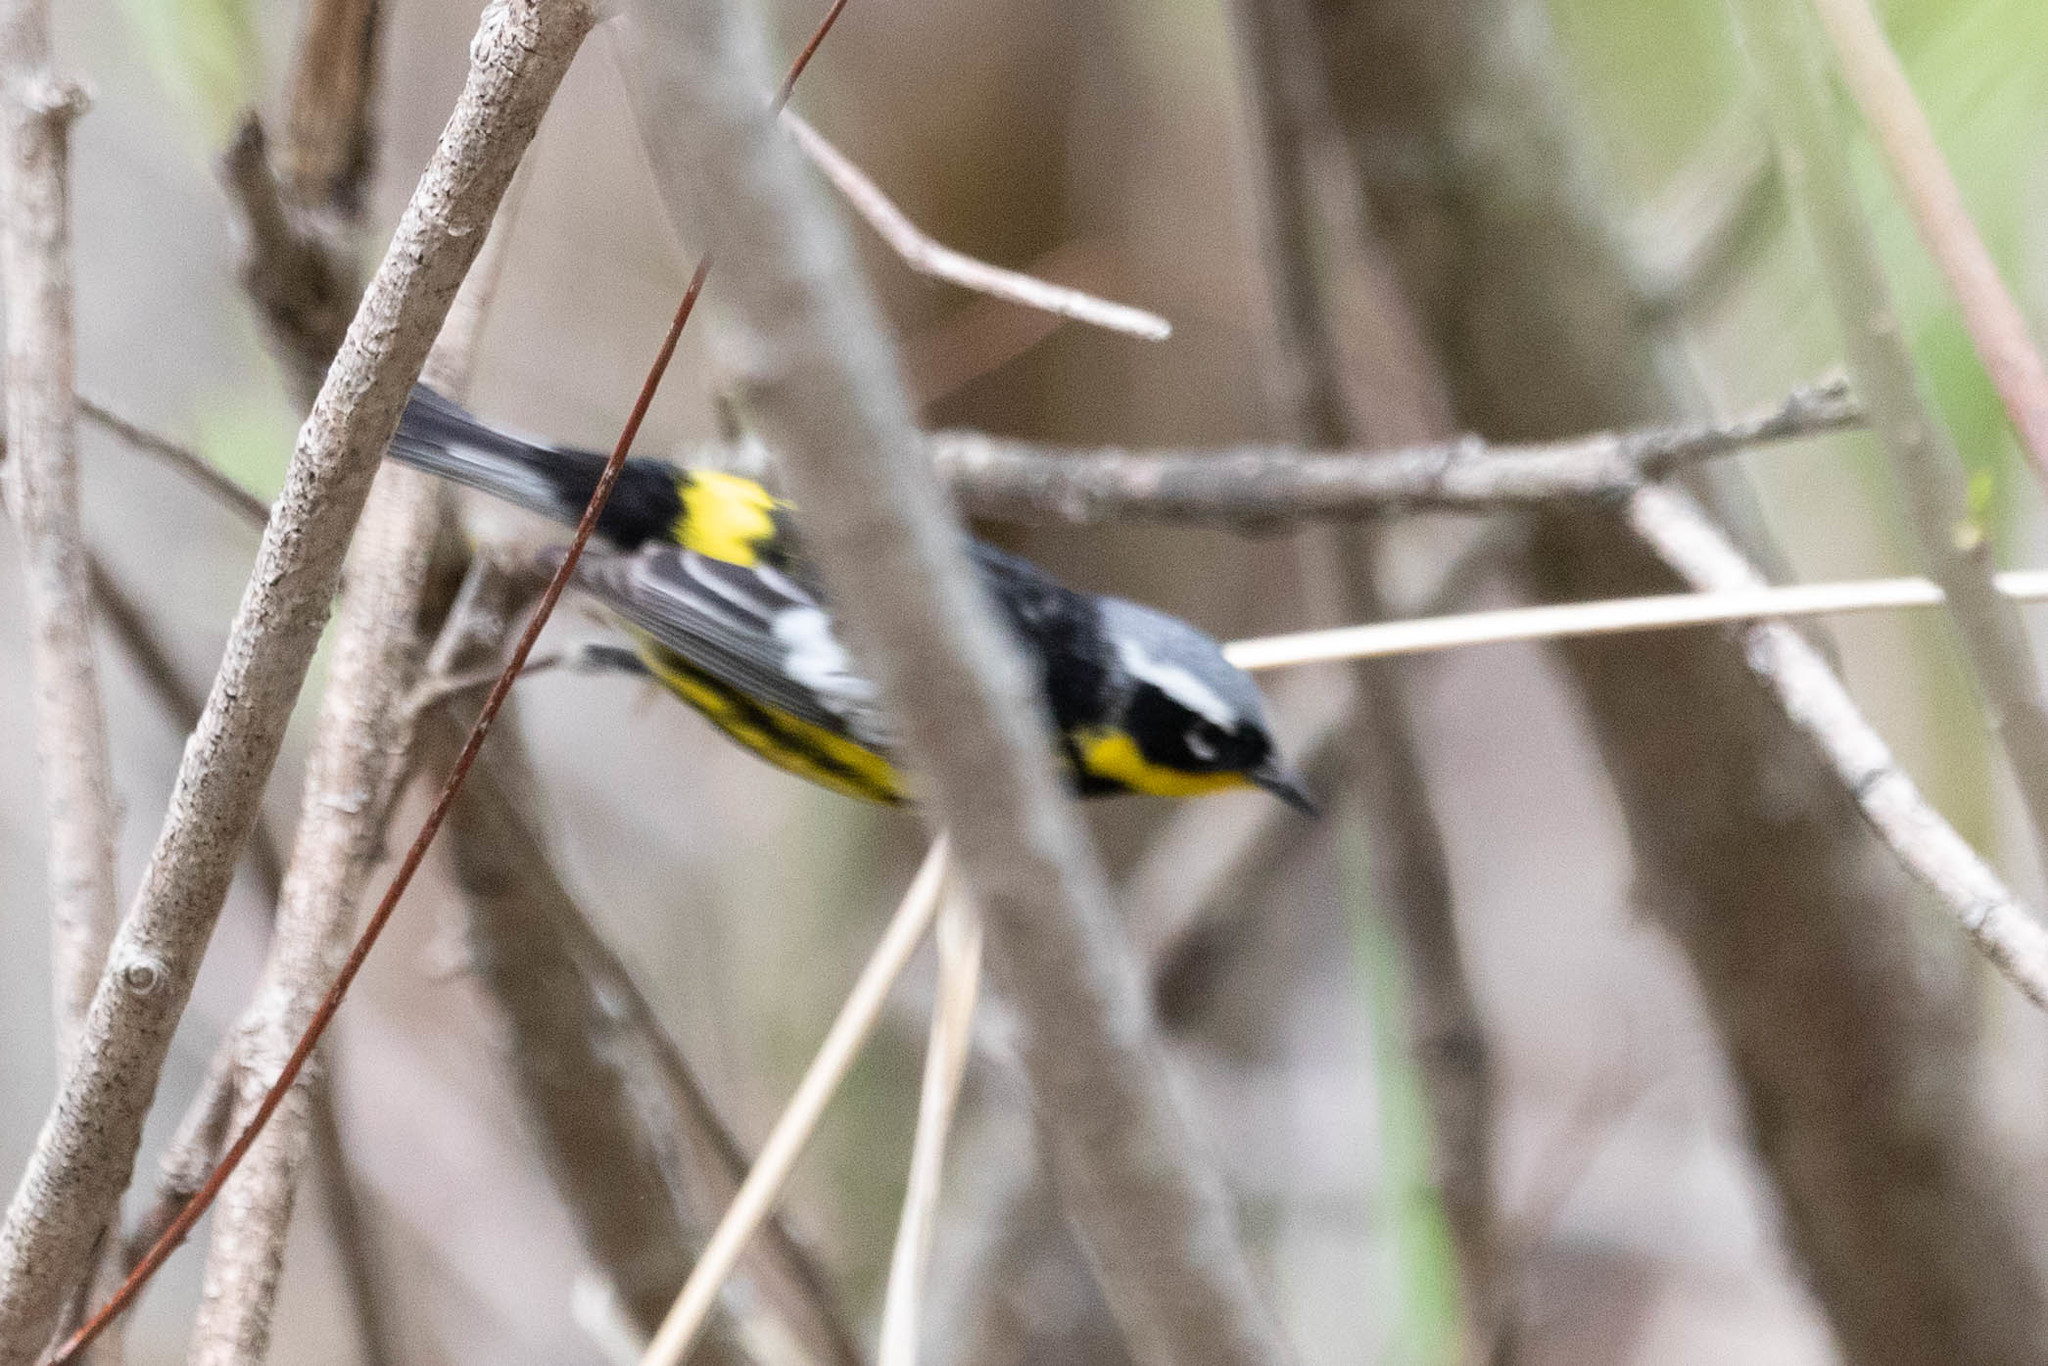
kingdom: Animalia
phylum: Chordata
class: Aves
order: Passeriformes
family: Parulidae
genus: Setophaga
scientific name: Setophaga magnolia
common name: Magnolia warbler
